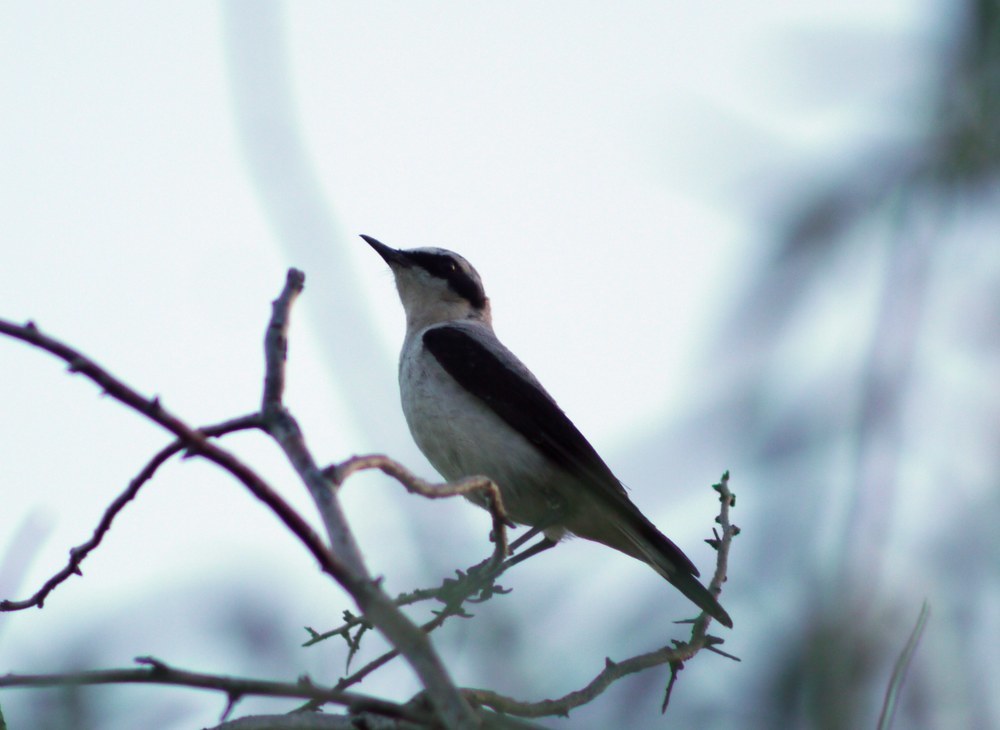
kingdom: Animalia
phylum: Chordata
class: Aves
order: Passeriformes
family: Muscicapidae
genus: Oenanthe
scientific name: Oenanthe oenanthe
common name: Northern wheatear
